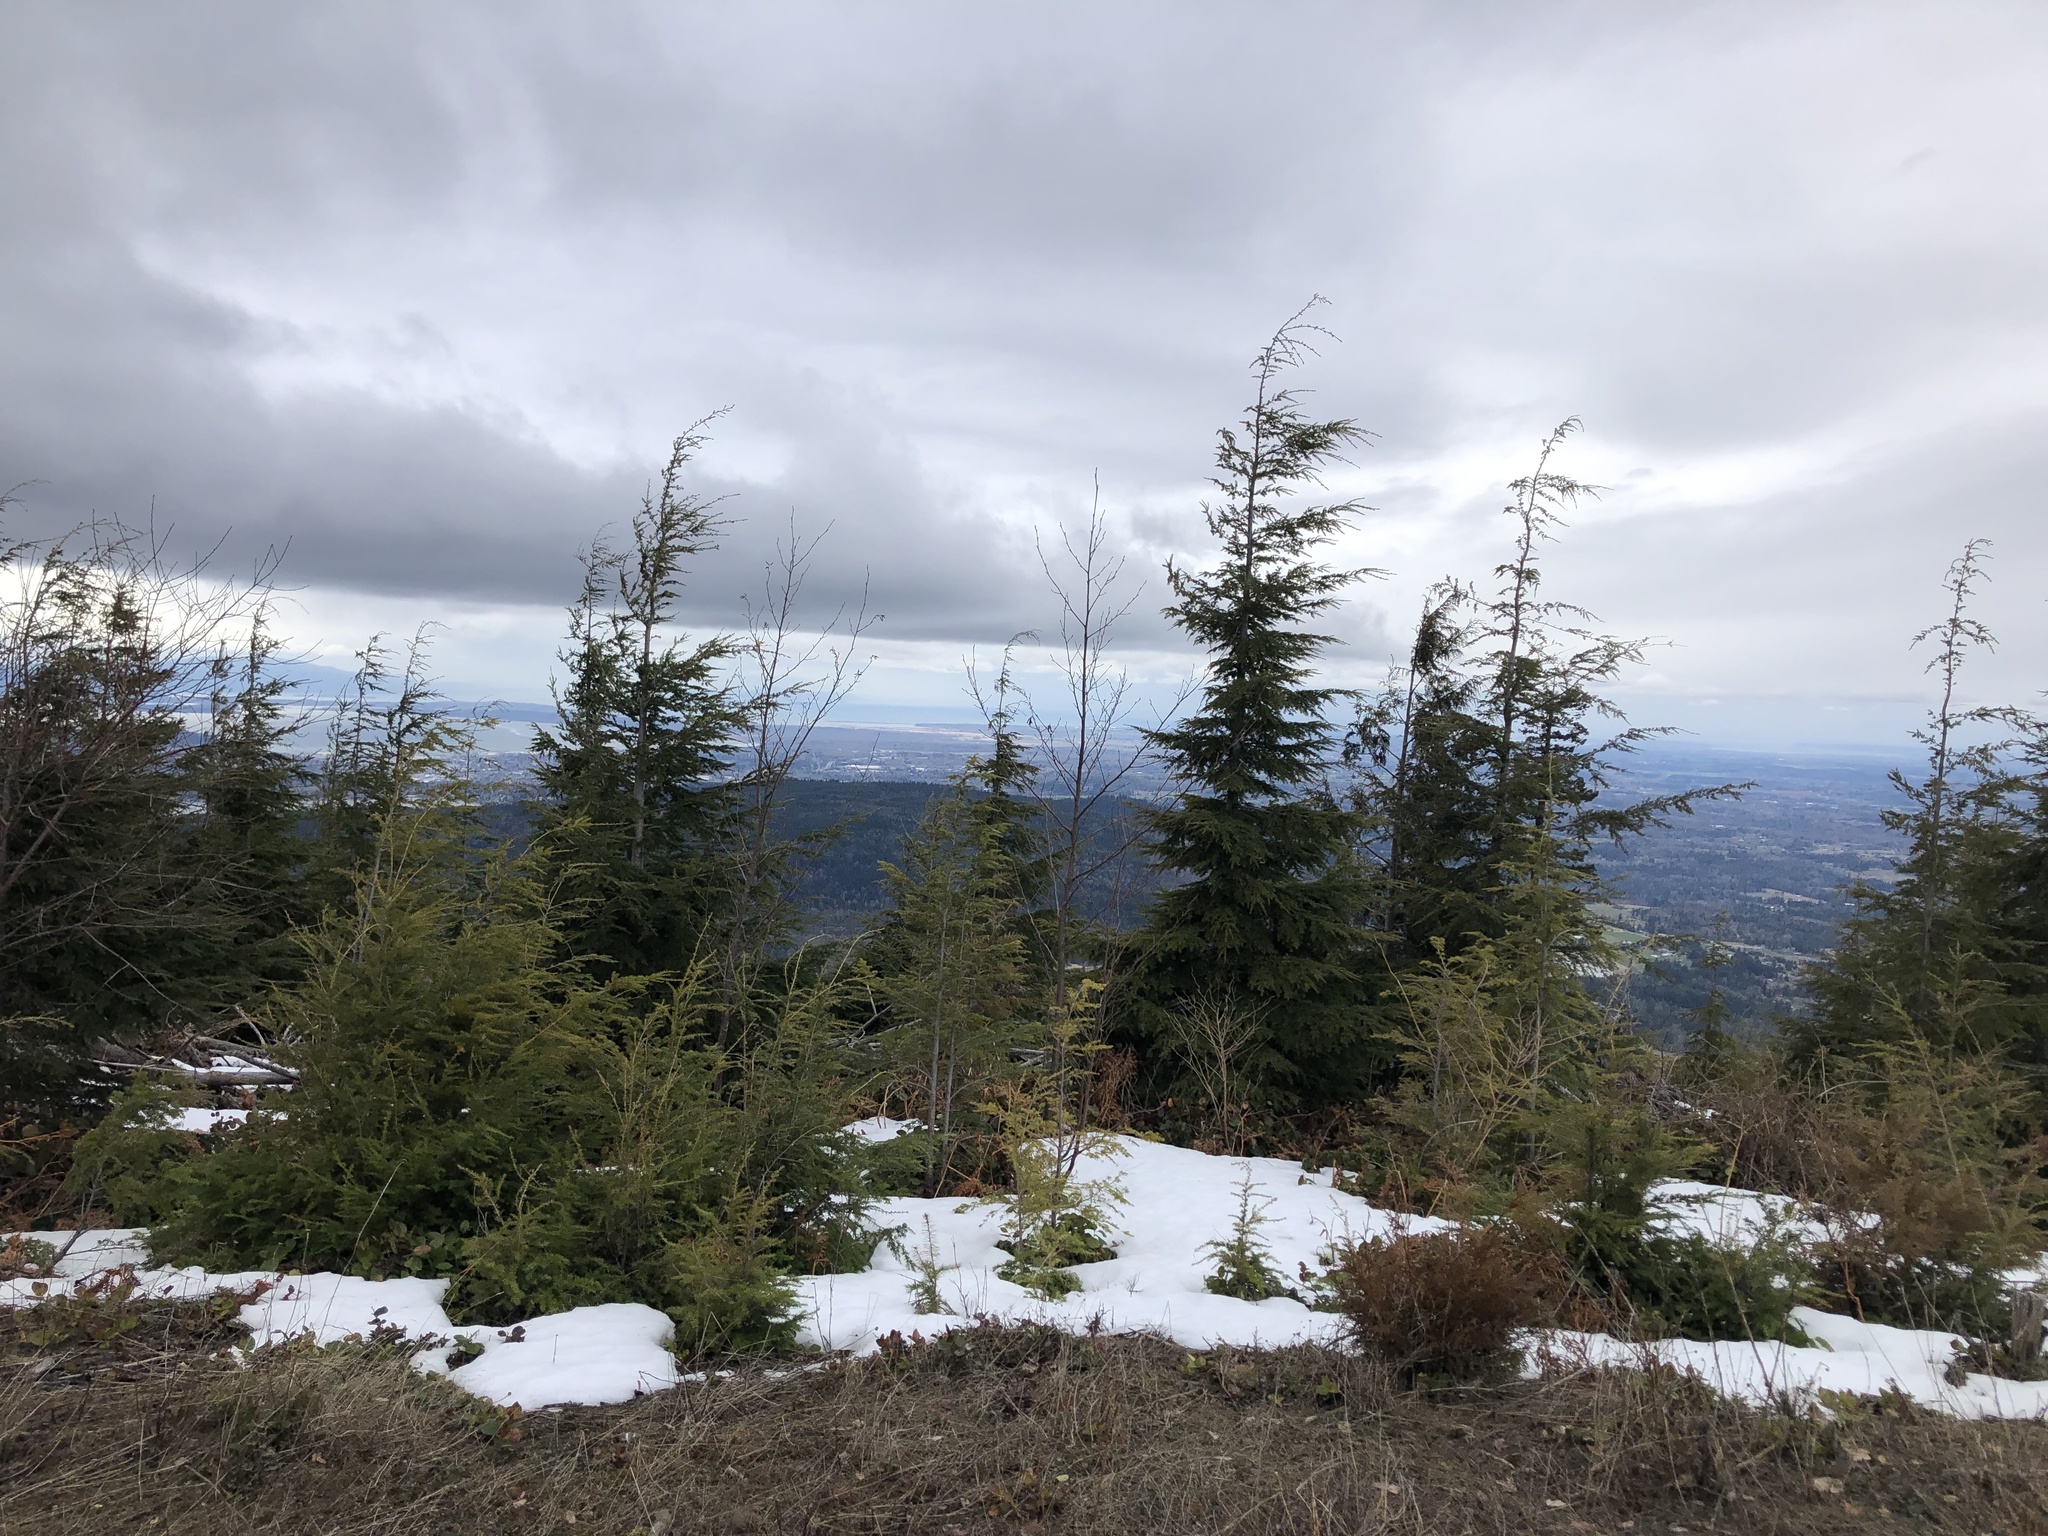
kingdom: Plantae
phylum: Tracheophyta
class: Pinopsida
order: Pinales
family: Pinaceae
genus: Tsuga
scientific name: Tsuga heterophylla
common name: Western hemlock
